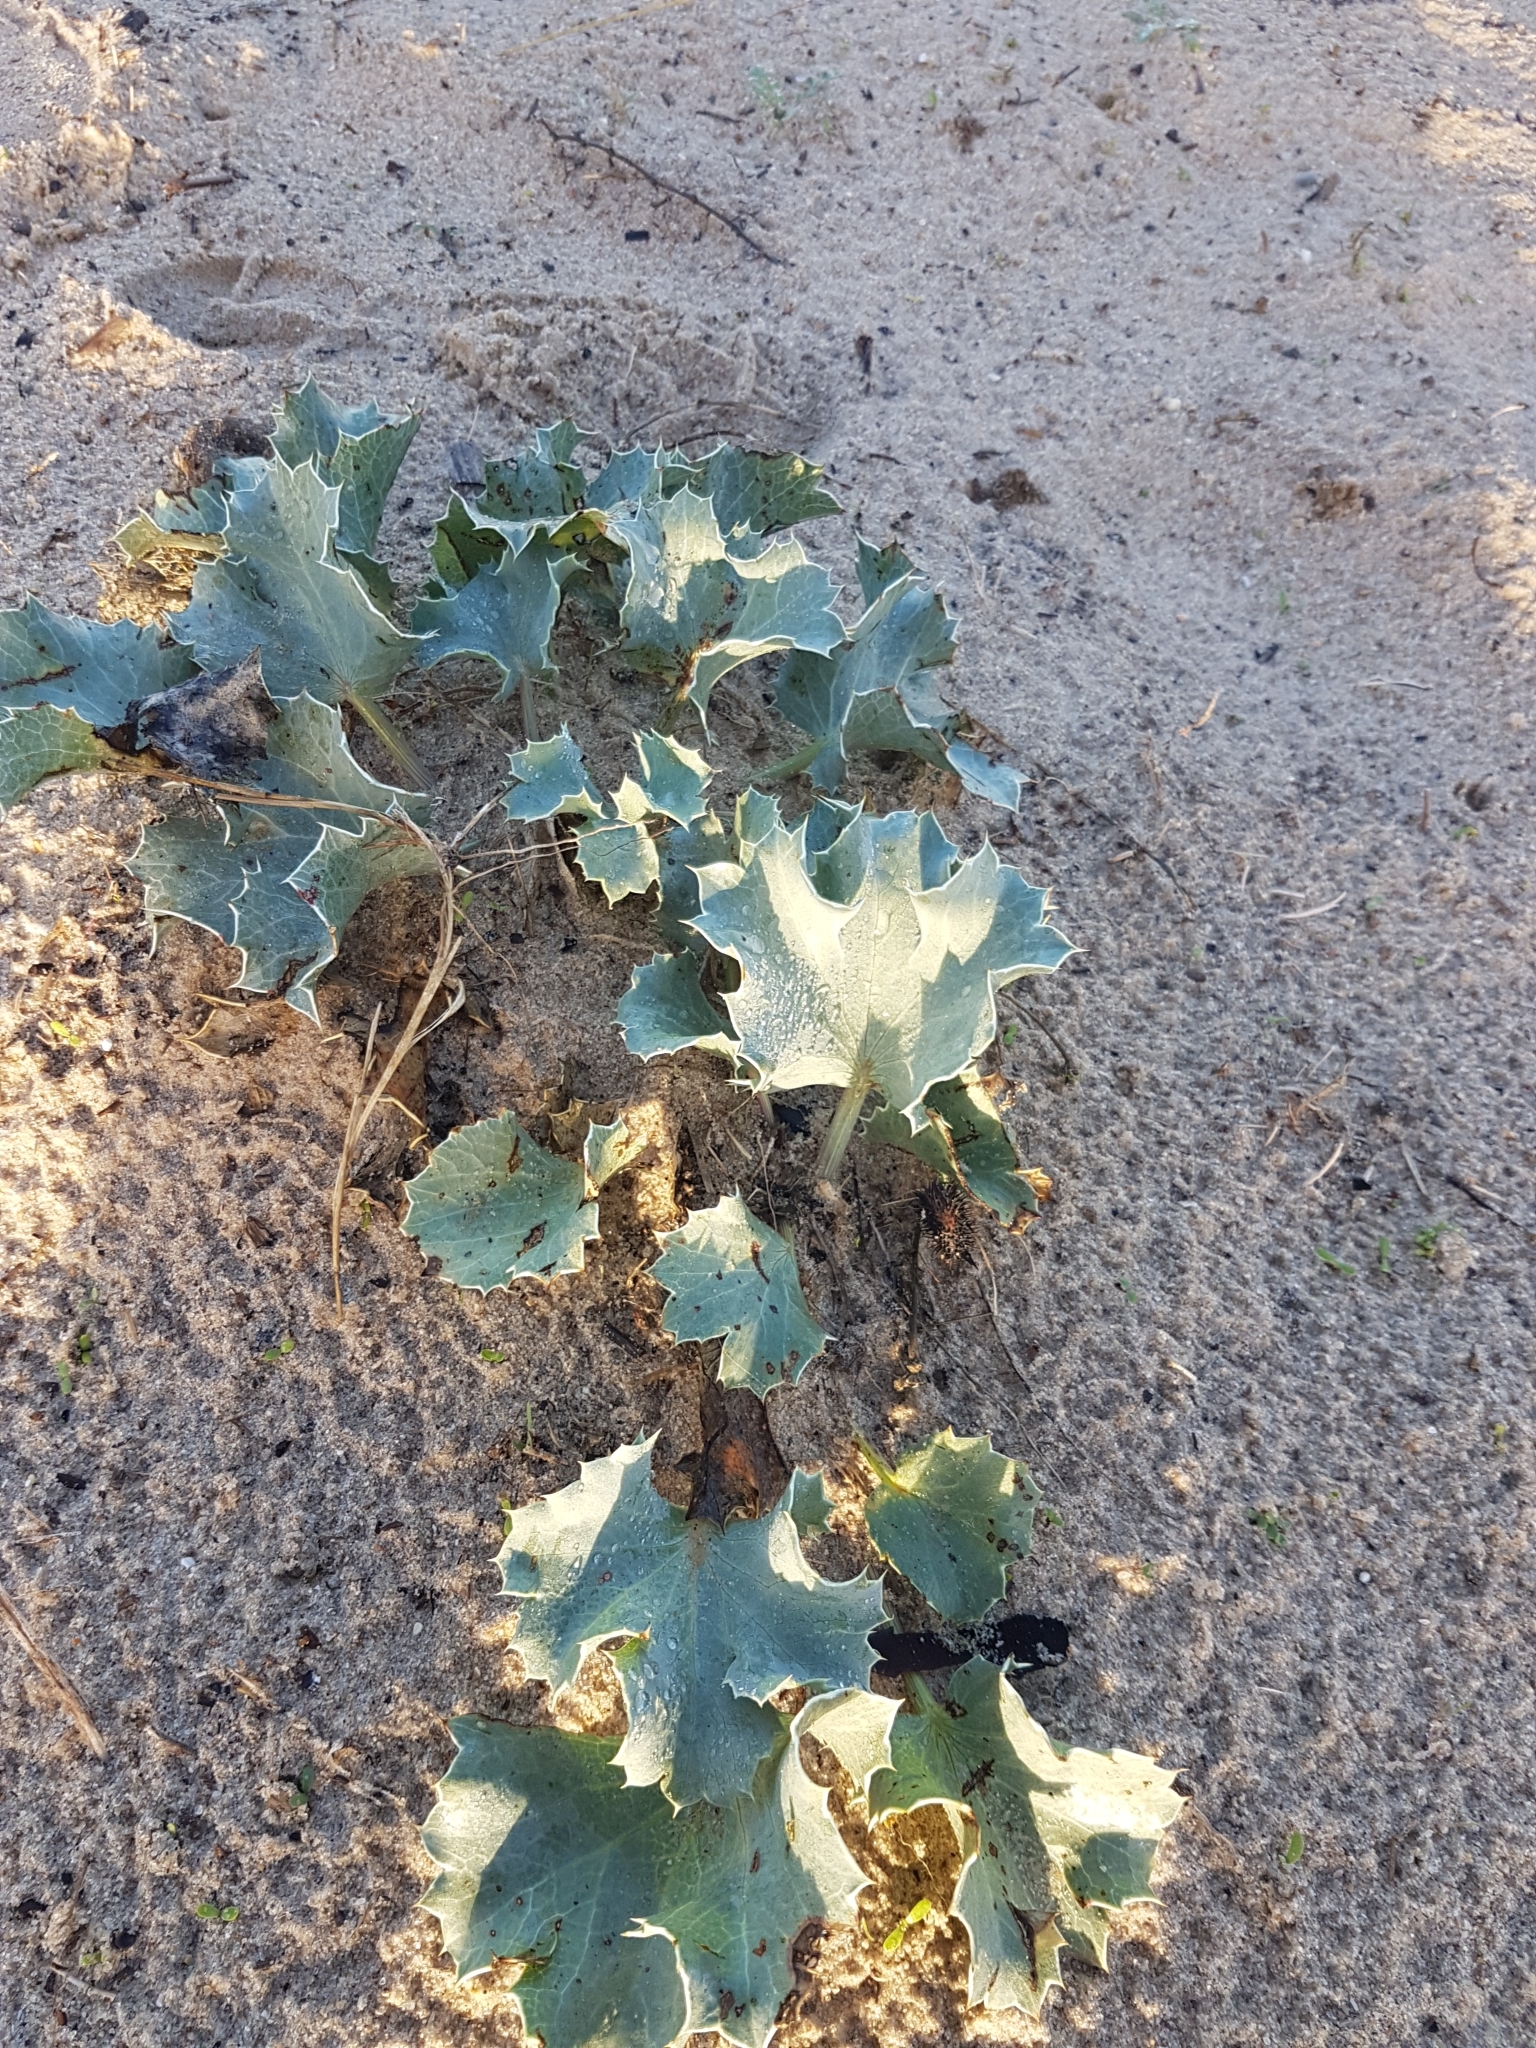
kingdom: Plantae
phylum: Tracheophyta
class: Magnoliopsida
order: Apiales
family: Apiaceae
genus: Eryngium
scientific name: Eryngium maritimum
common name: Sea-holly
